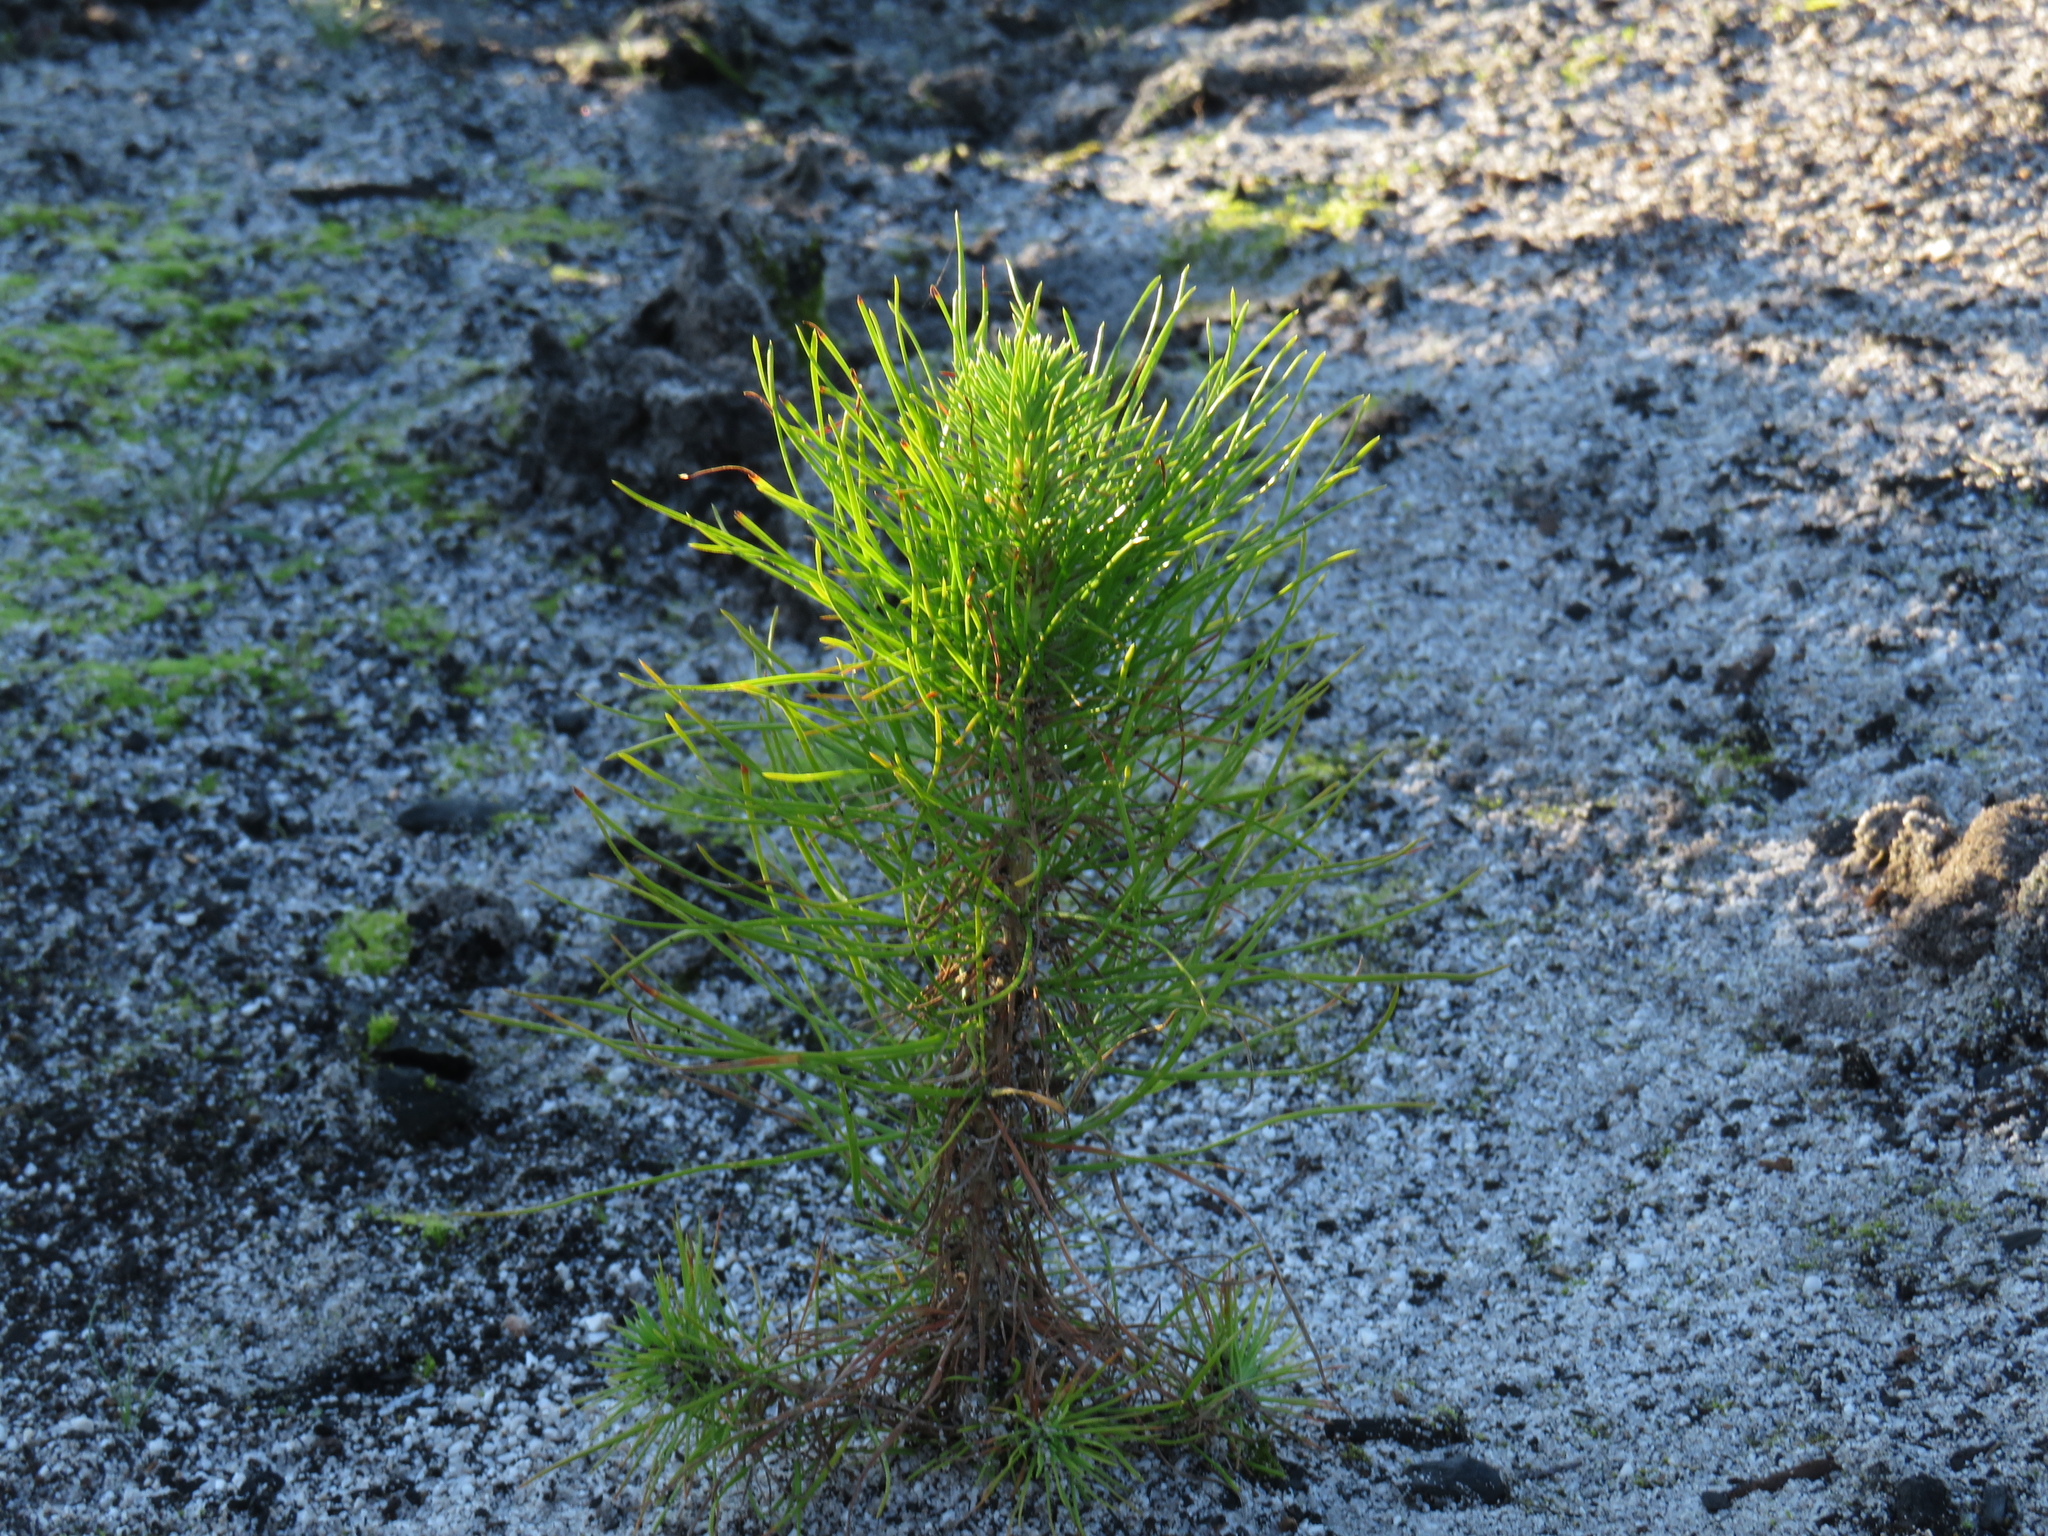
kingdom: Plantae
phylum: Tracheophyta
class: Pinopsida
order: Pinales
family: Pinaceae
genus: Pinus
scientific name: Pinus radiata
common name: Monterey pine
